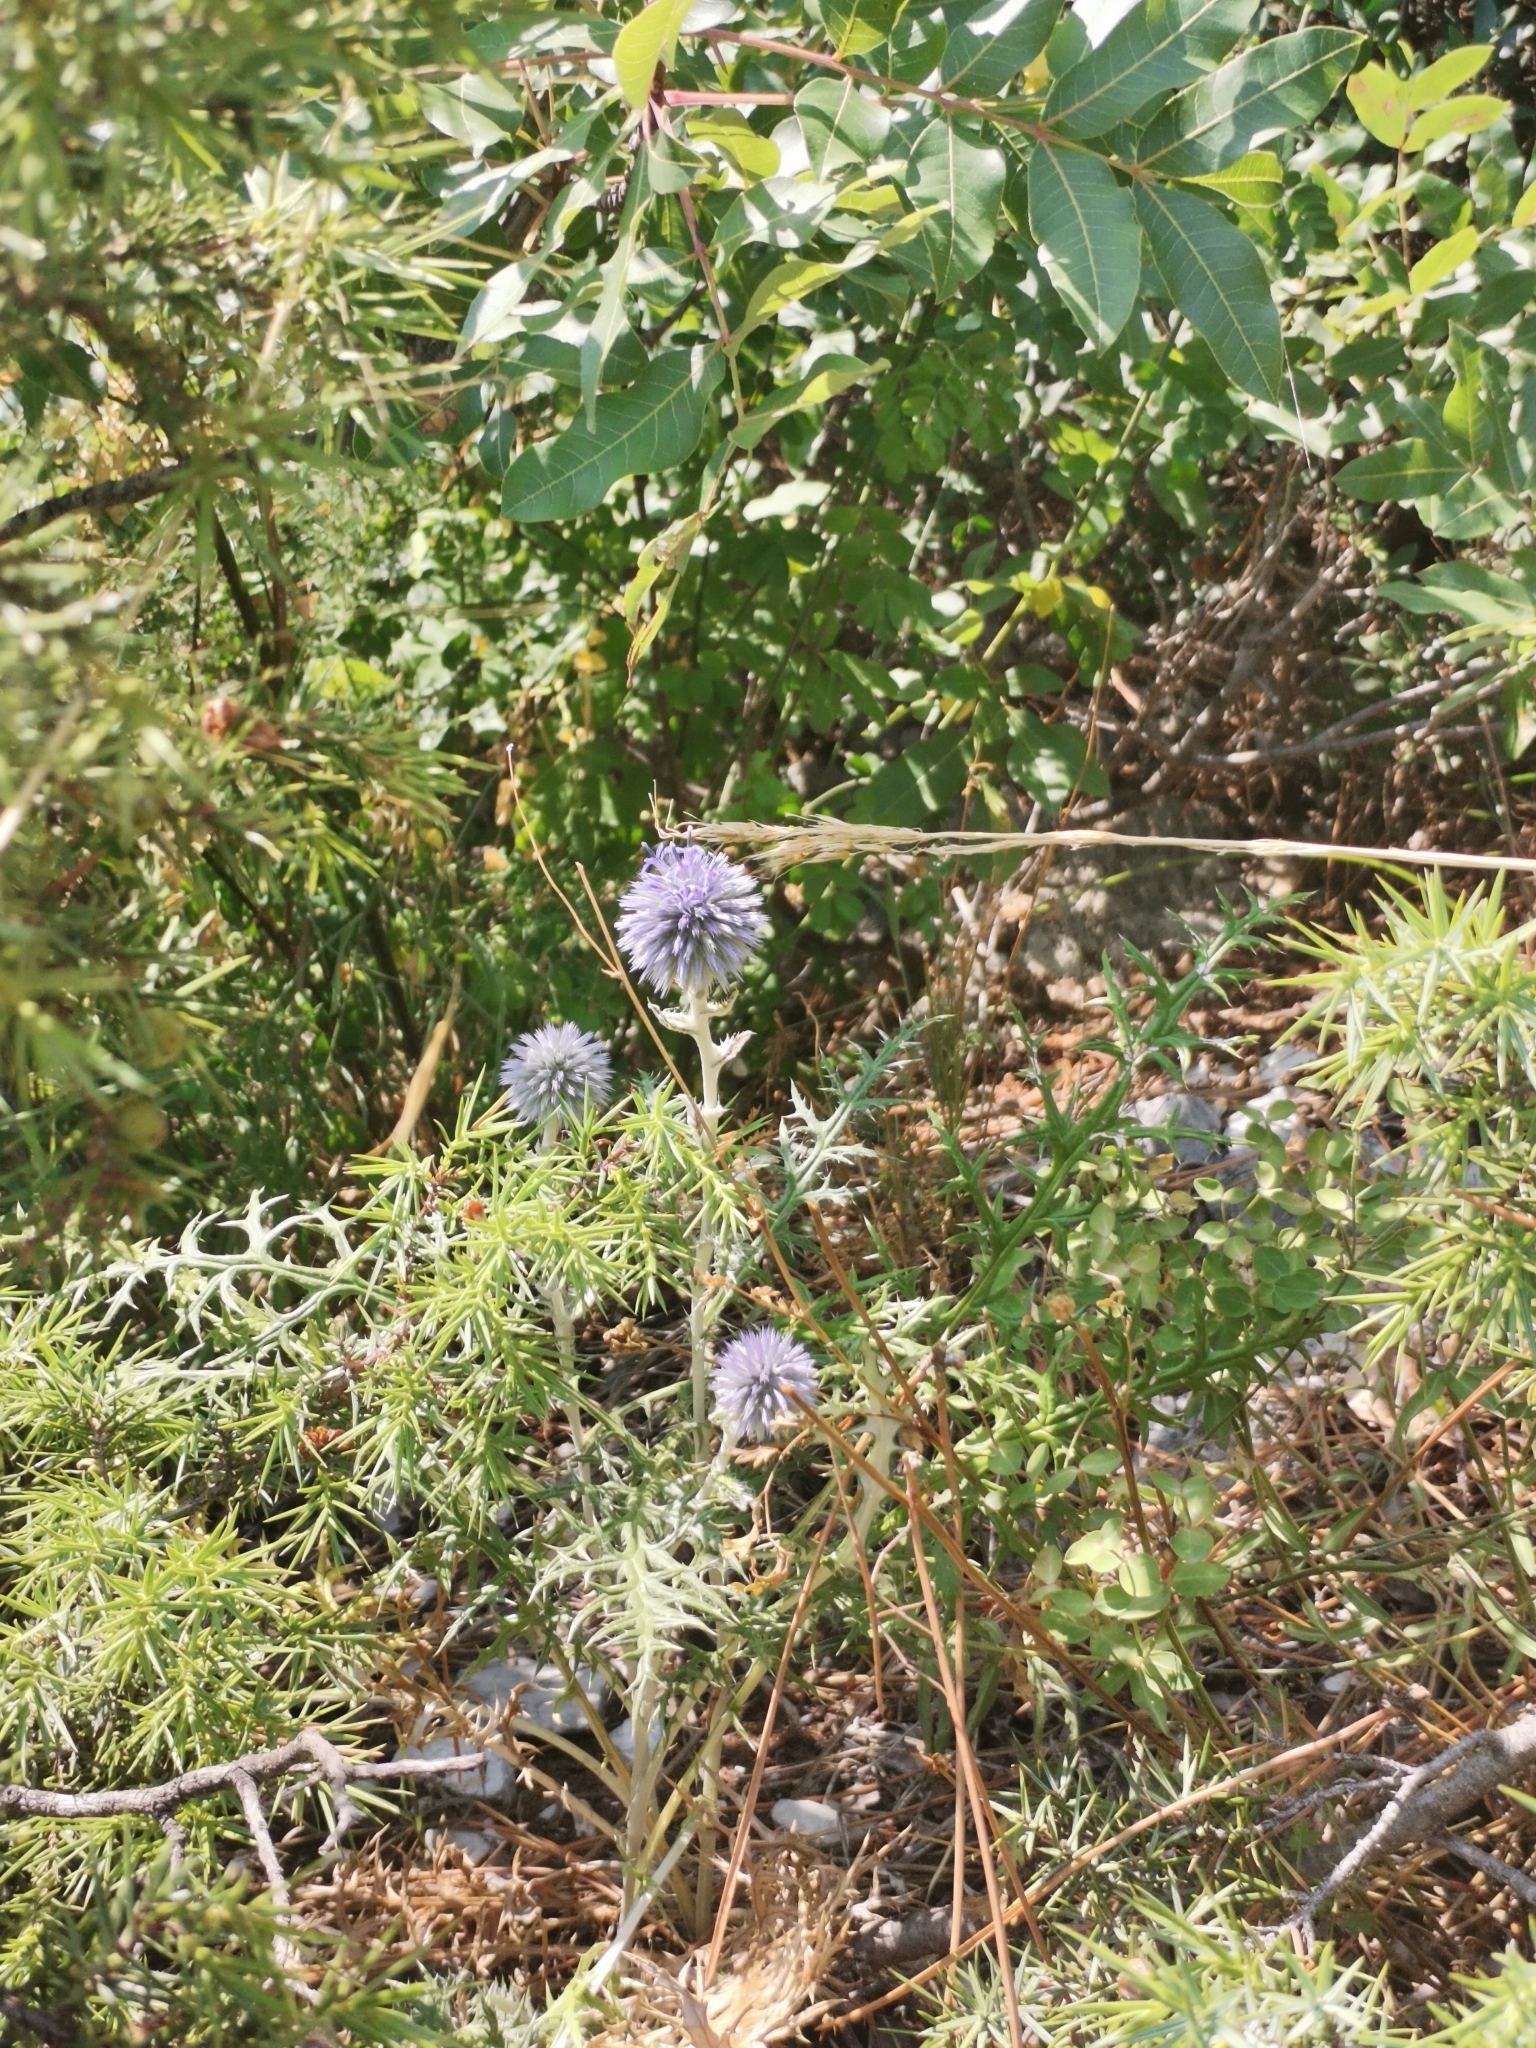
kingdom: Plantae
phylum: Tracheophyta
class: Magnoliopsida
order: Asterales
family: Asteraceae
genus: Echinops
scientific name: Echinops ritro
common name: Globe thistle
